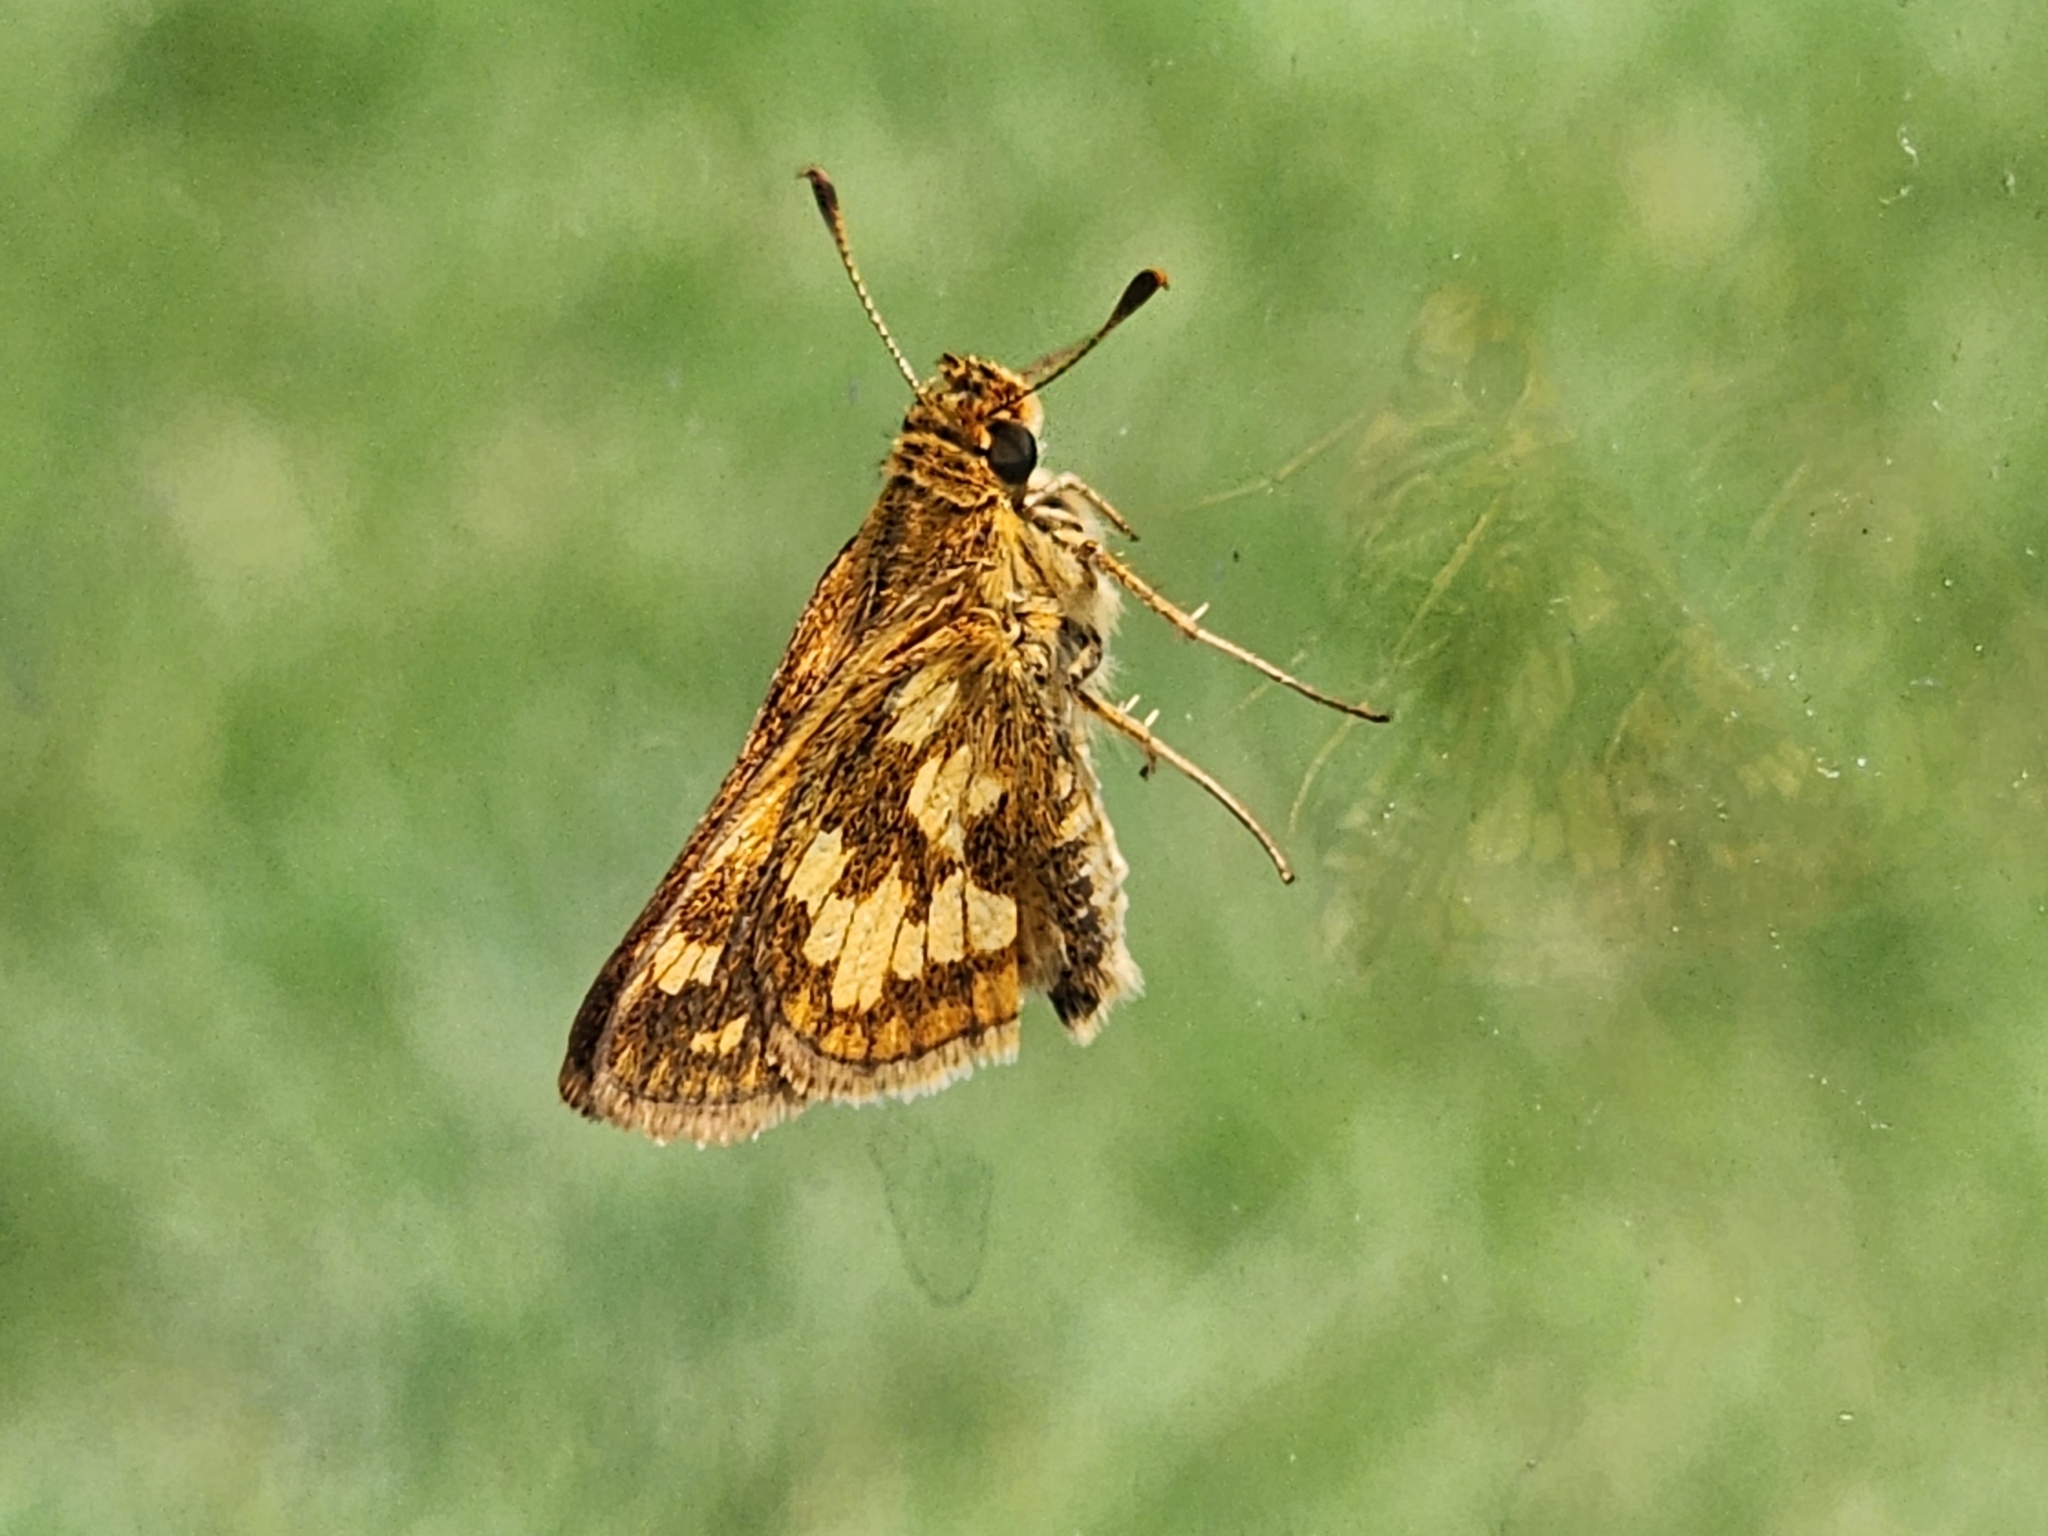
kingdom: Animalia
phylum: Arthropoda
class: Insecta
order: Lepidoptera
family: Hesperiidae
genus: Polites
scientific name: Polites coras
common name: Peck's skipper
